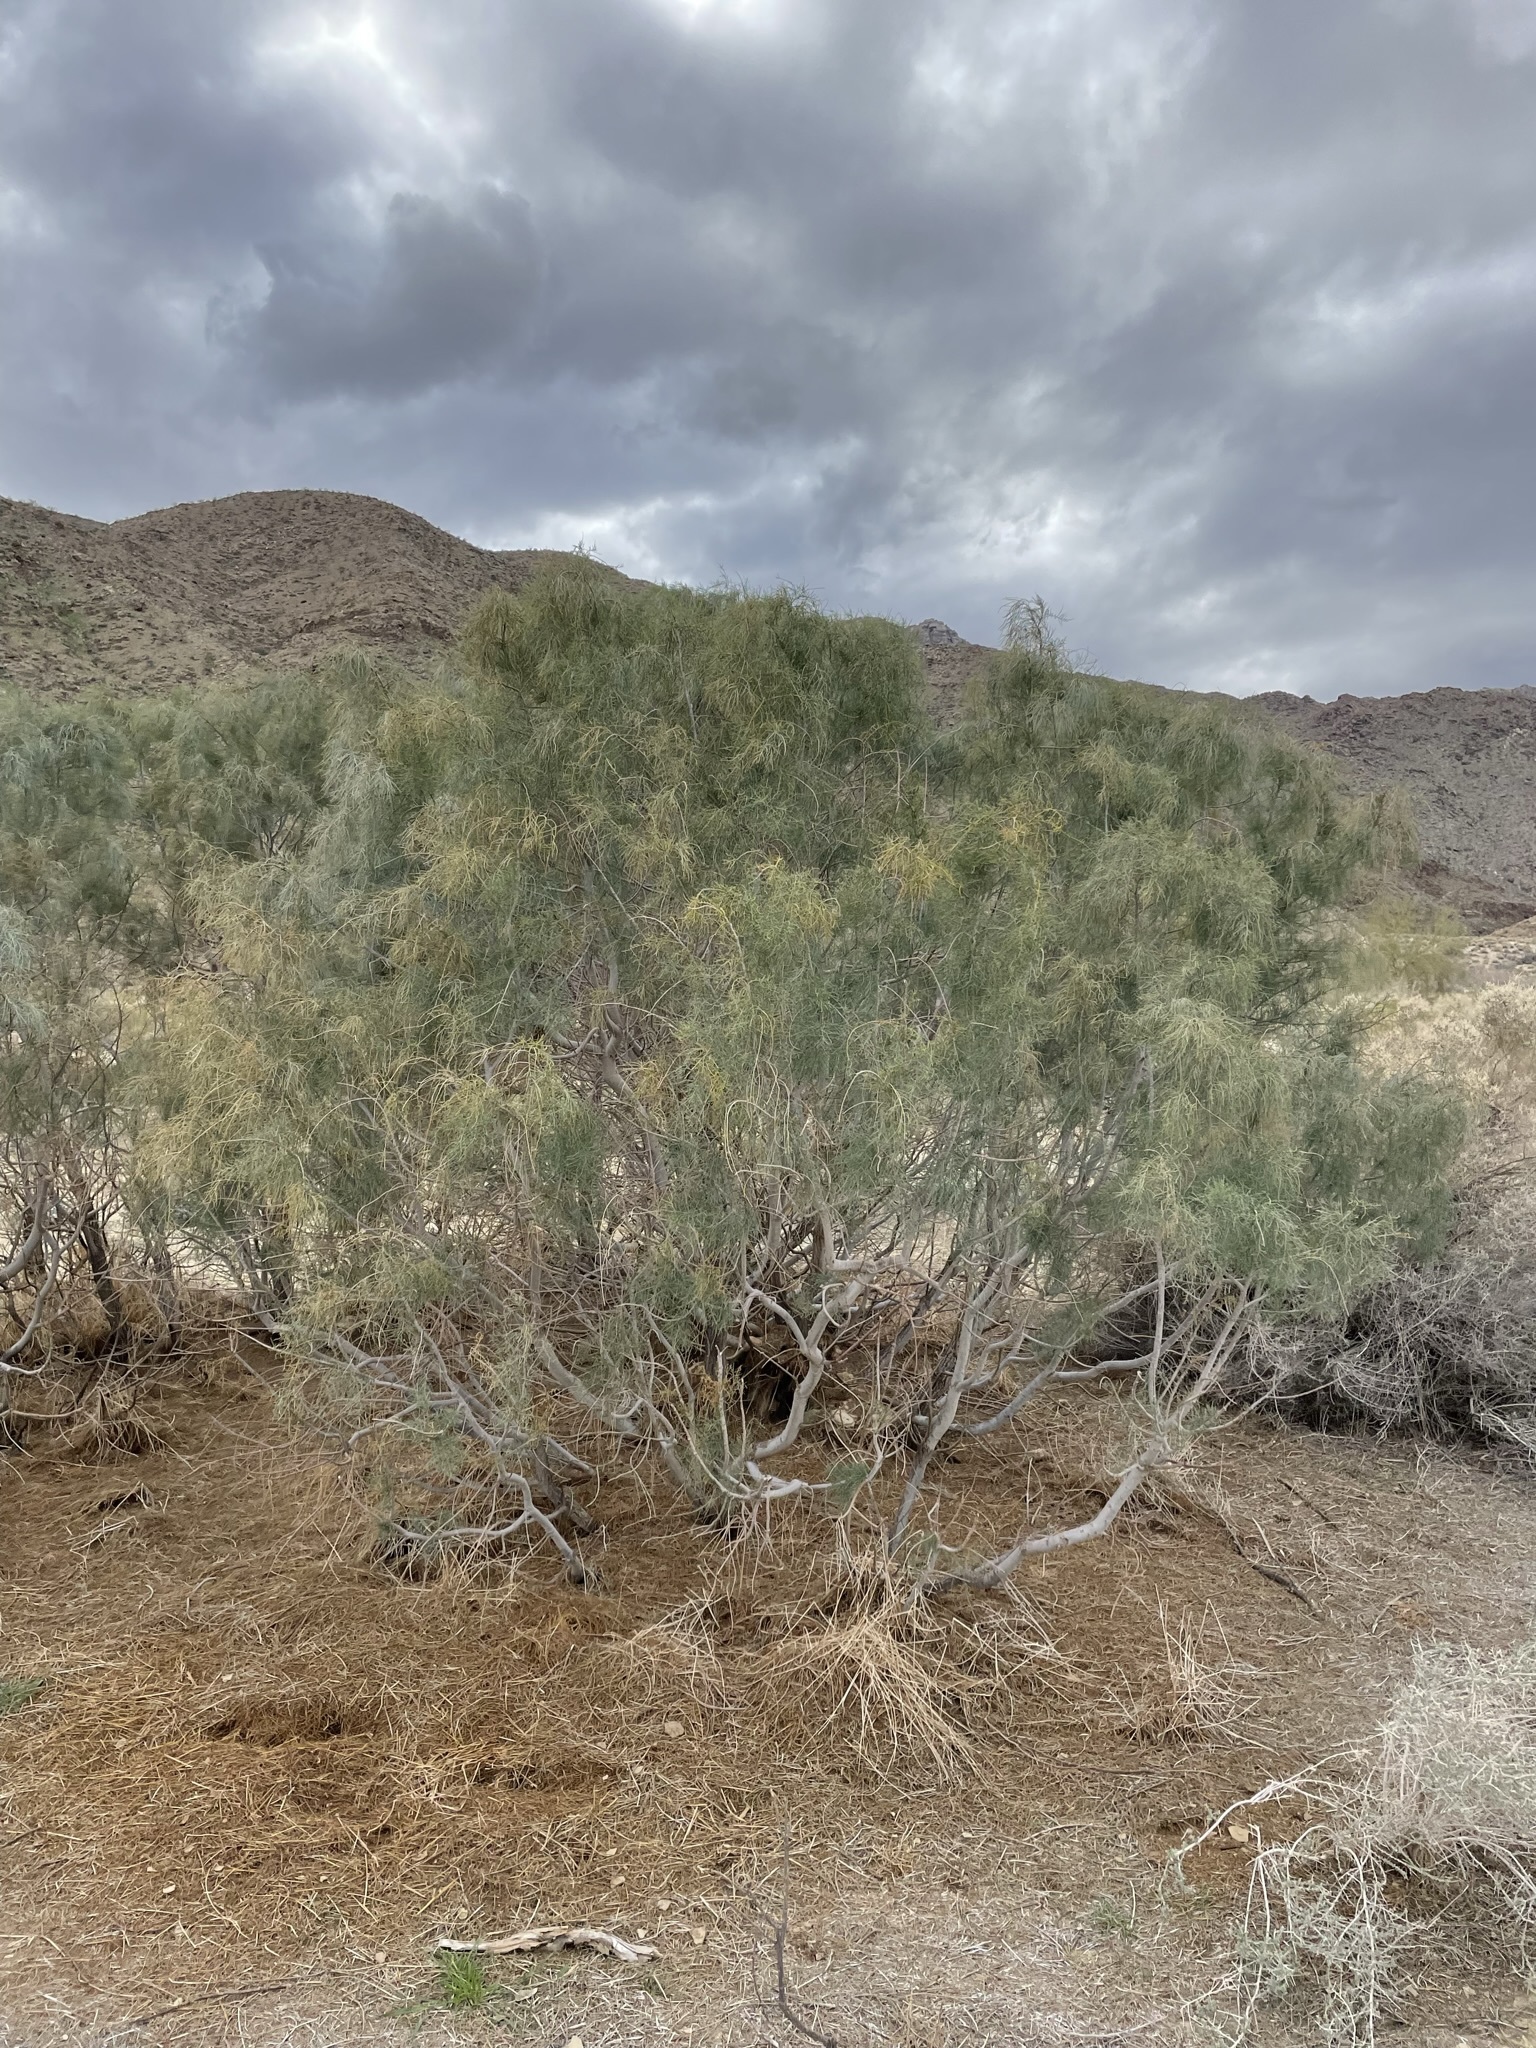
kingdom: Plantae
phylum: Tracheophyta
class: Magnoliopsida
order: Caryophyllales
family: Tamaricaceae
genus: Tamarix
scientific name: Tamarix aphylla
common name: Athel tamarisk
